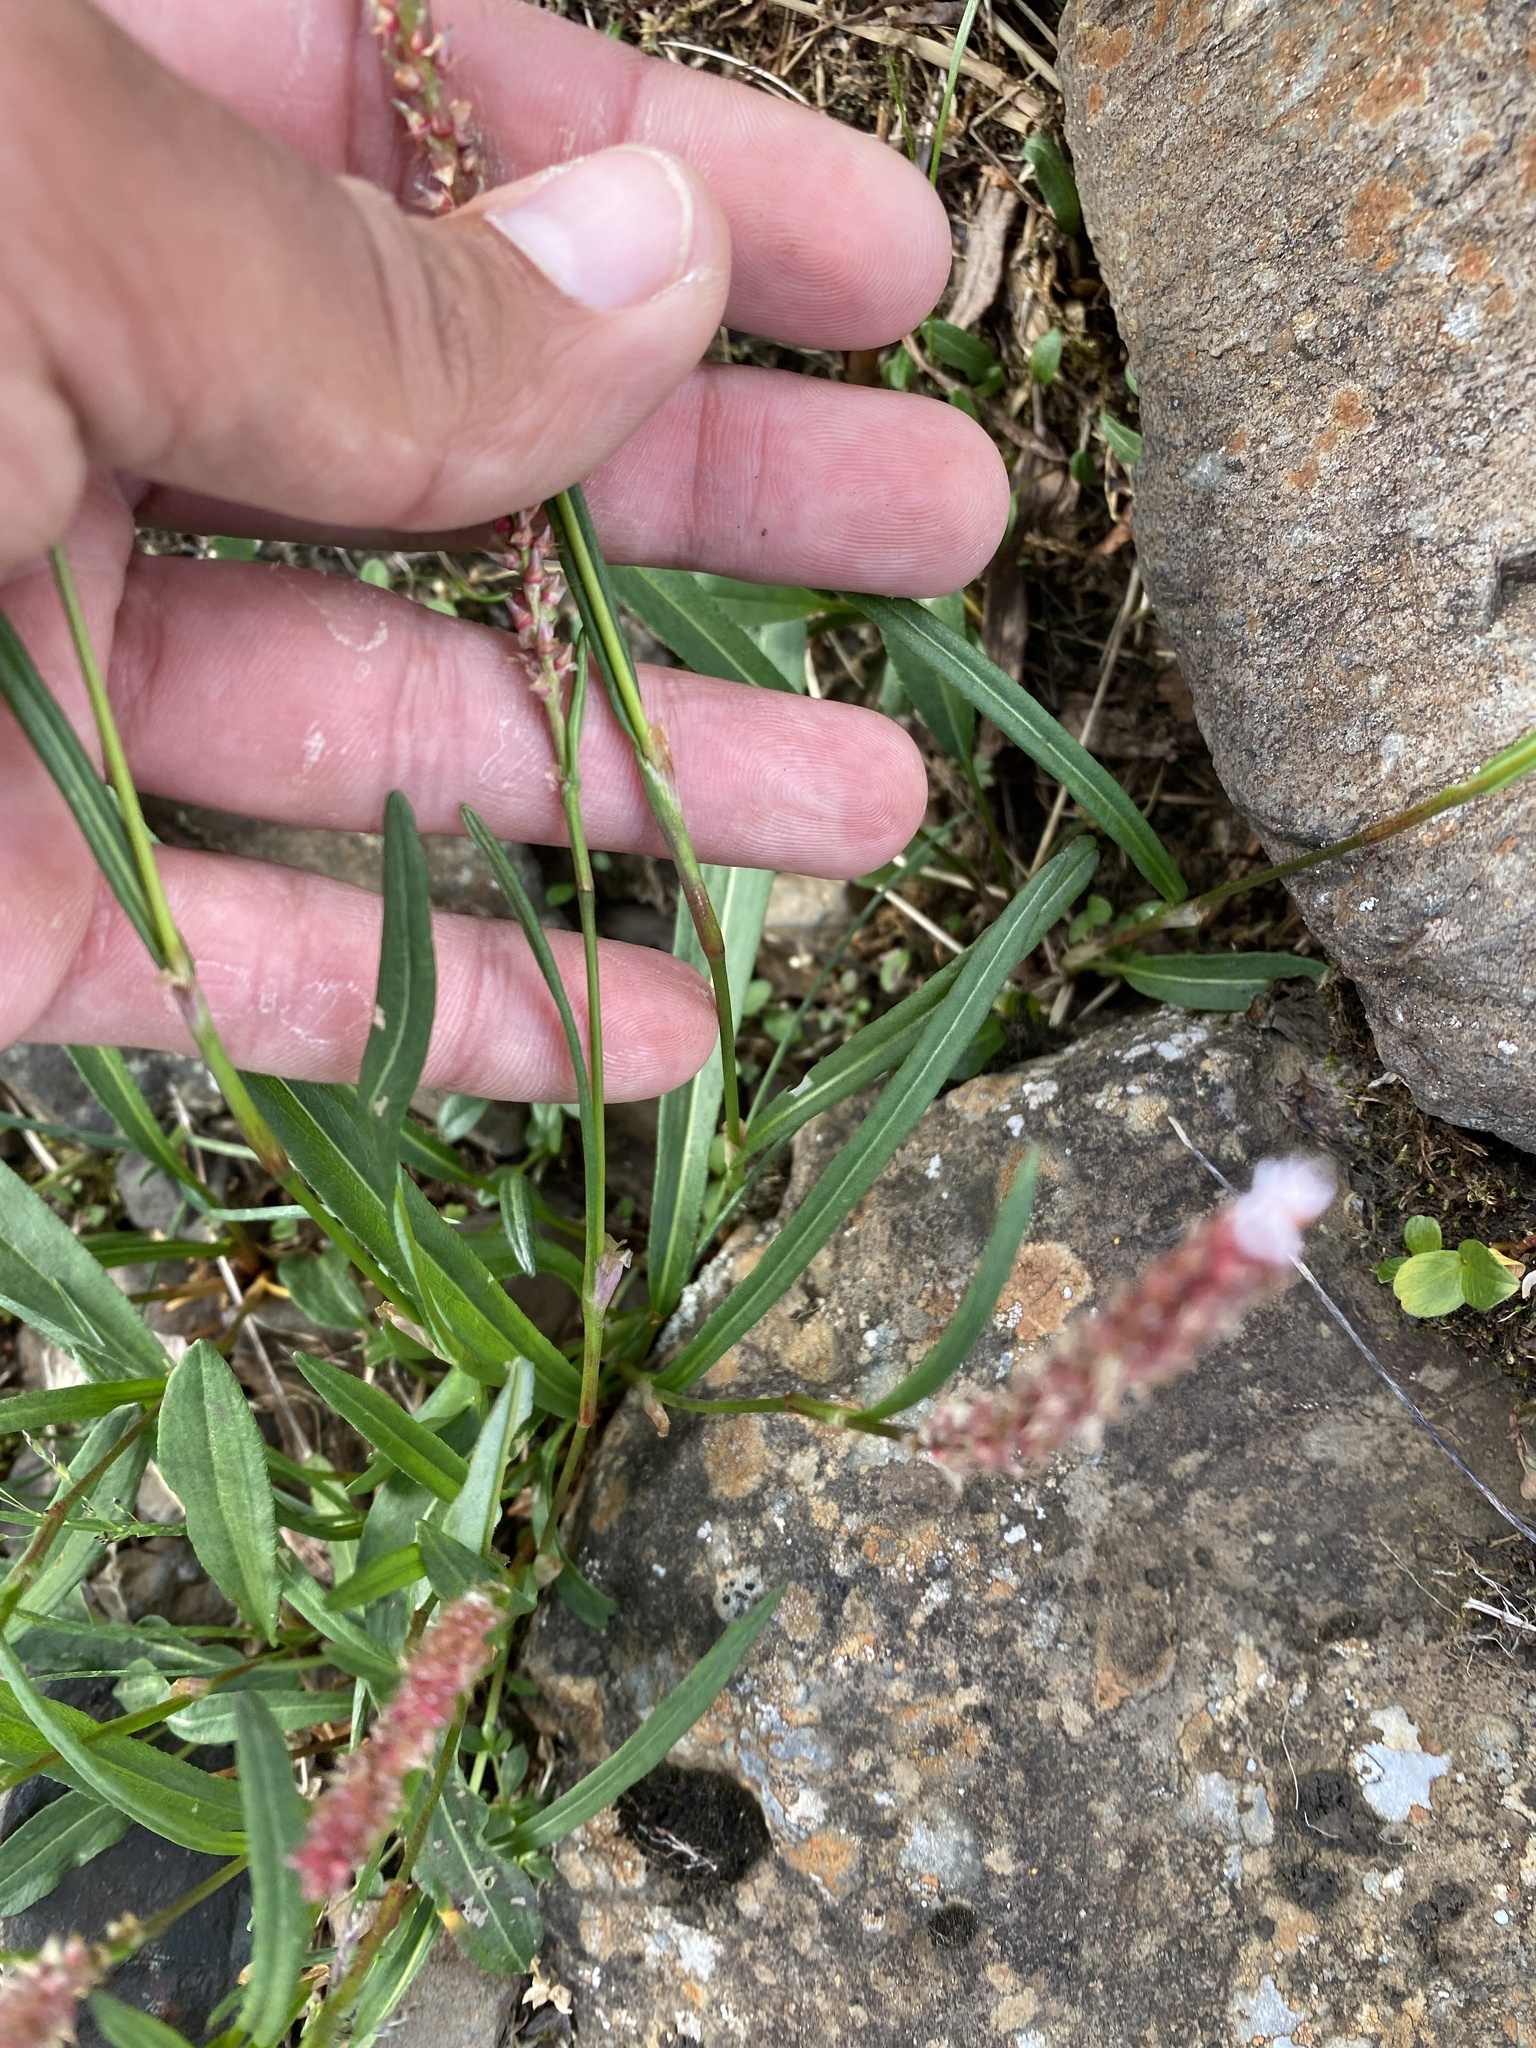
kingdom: Plantae
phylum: Tracheophyta
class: Magnoliopsida
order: Caryophyllales
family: Polygonaceae
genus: Bistorta
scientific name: Bistorta vivipara
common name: Alpine bistort
